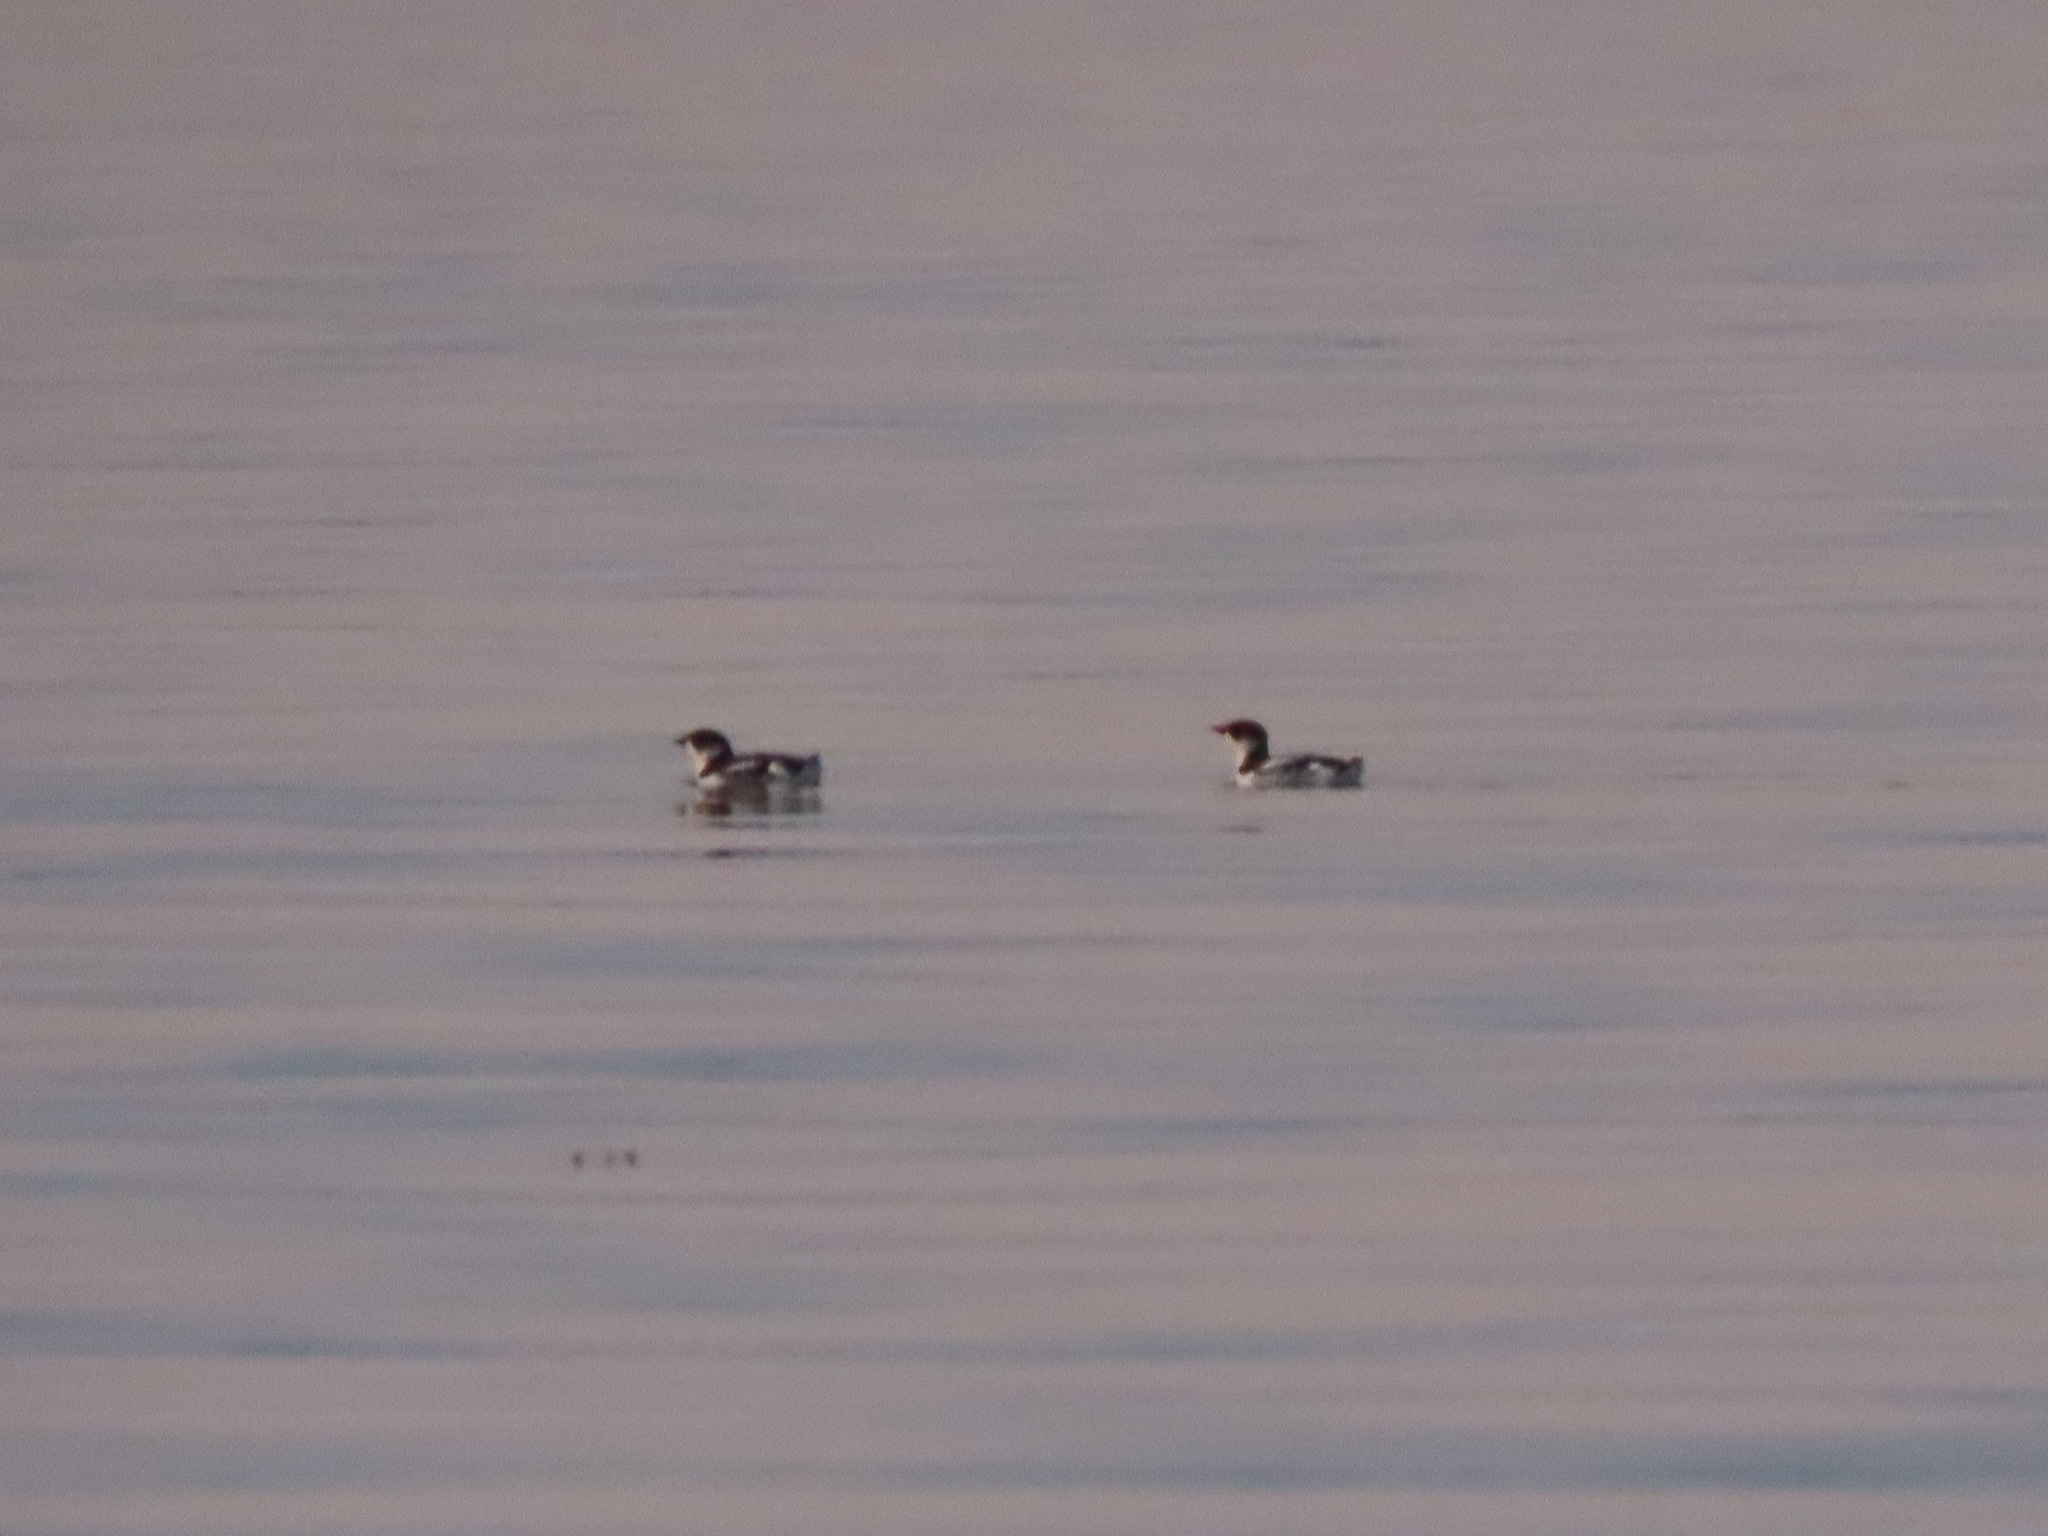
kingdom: Animalia
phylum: Chordata
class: Aves
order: Charadriiformes
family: Alcidae
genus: Brachyramphus
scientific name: Brachyramphus marmoratus
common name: Marbled murrelet
